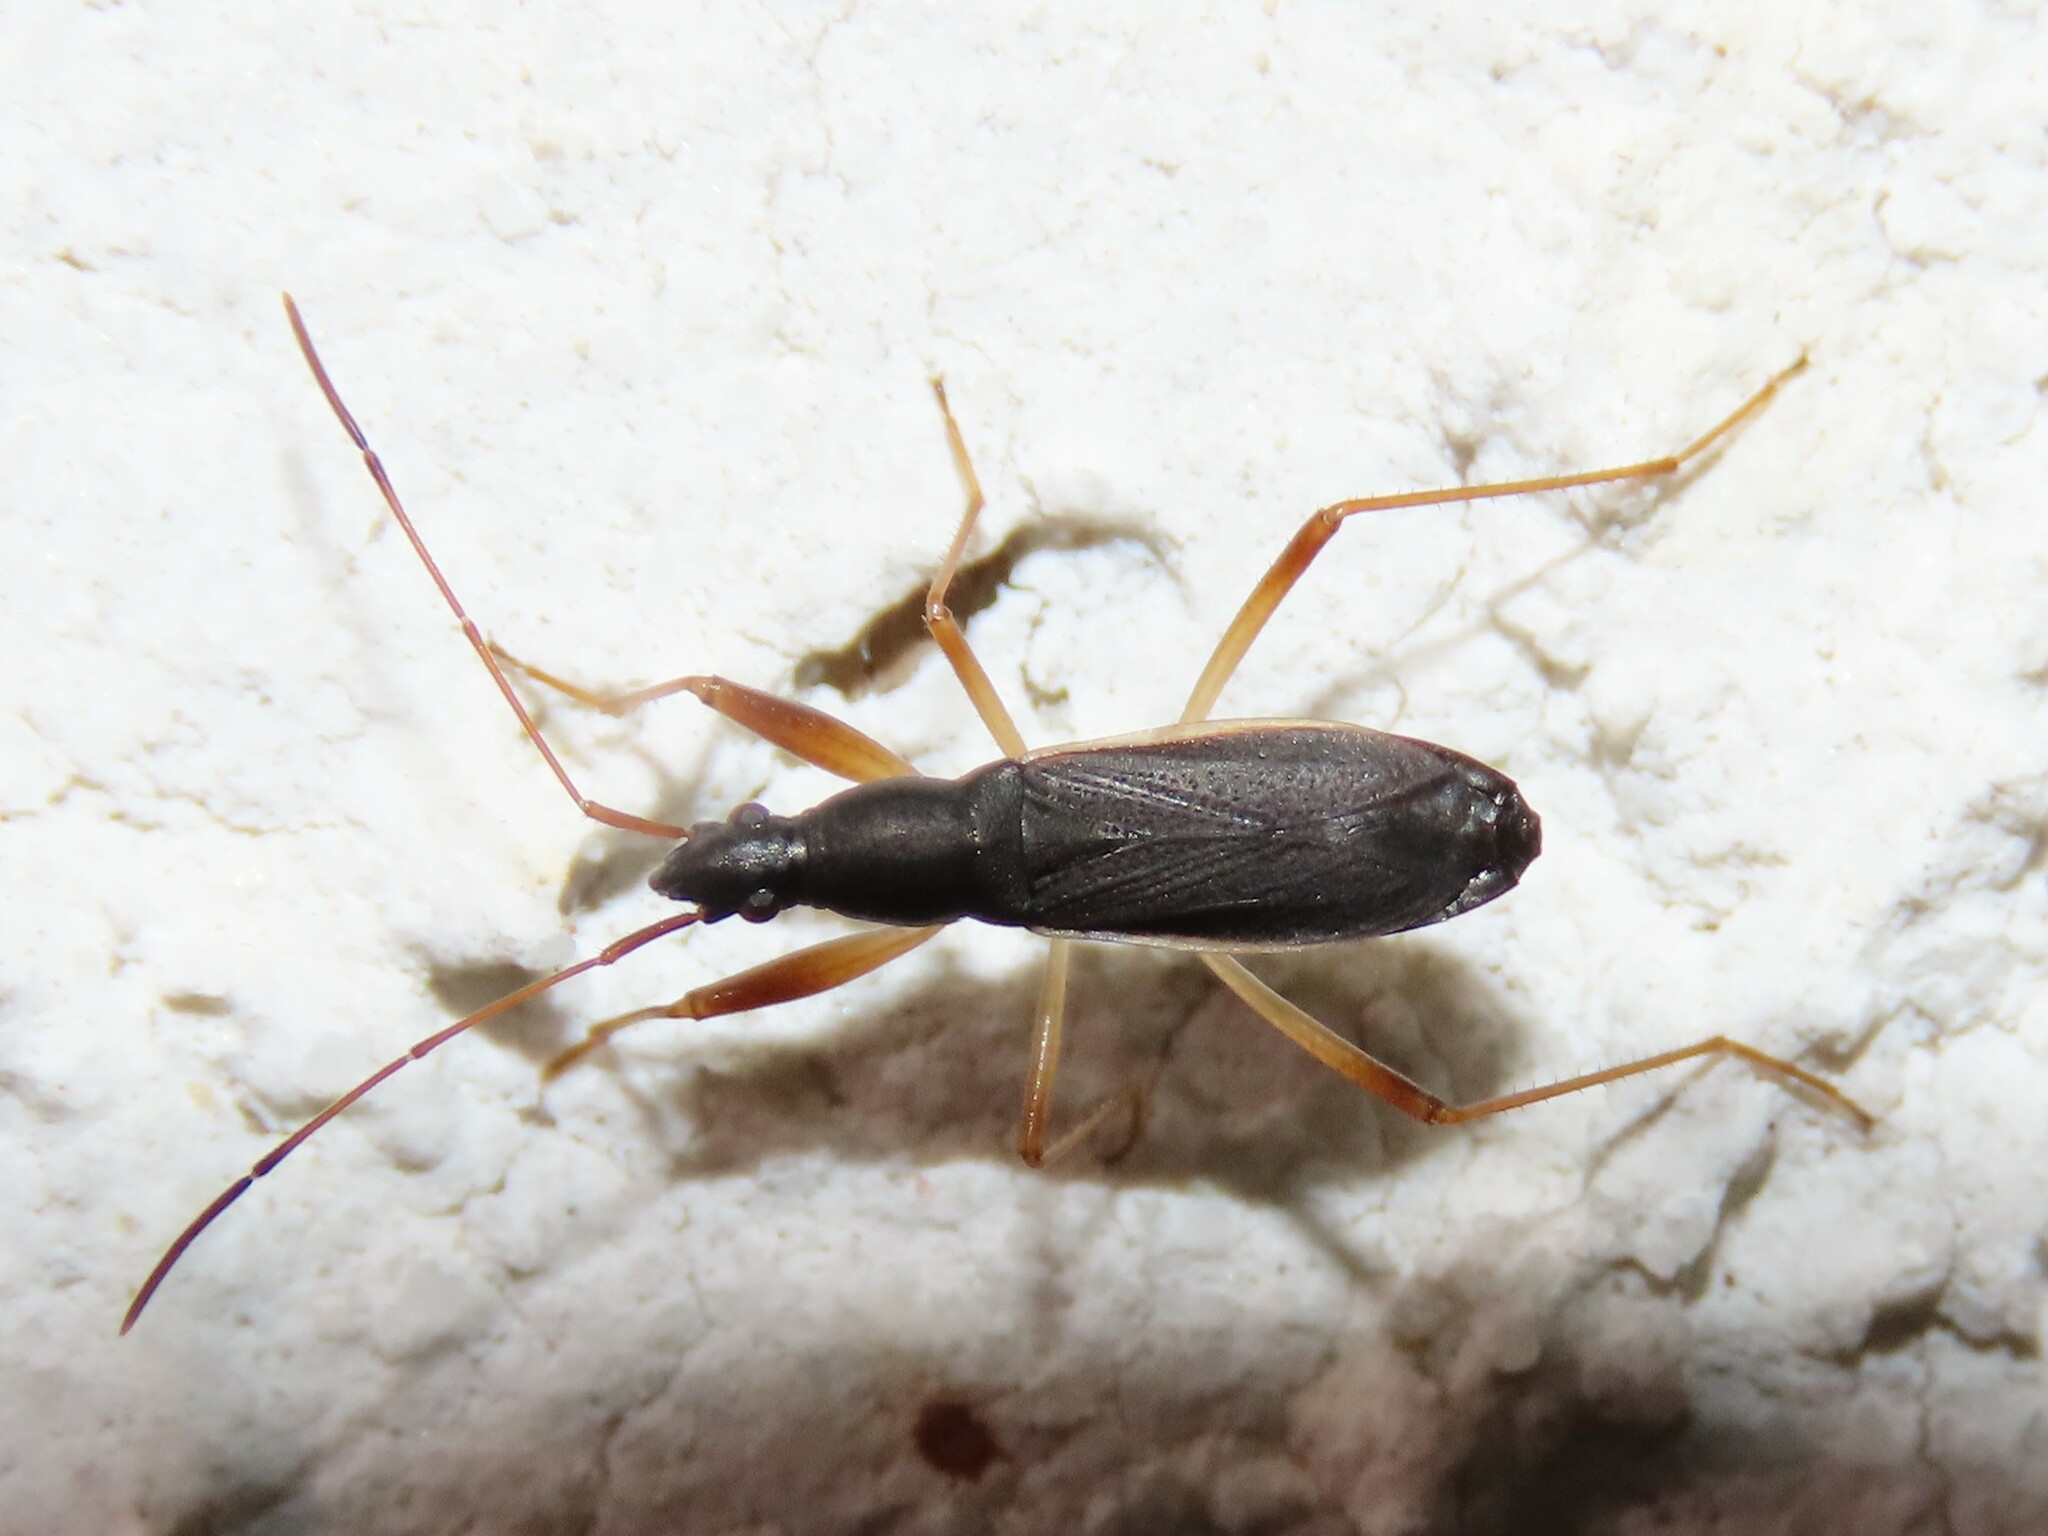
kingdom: Animalia
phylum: Arthropoda
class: Insecta
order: Hemiptera
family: Rhyparochromidae
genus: Cnemodus
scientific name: Cnemodus mavortius
